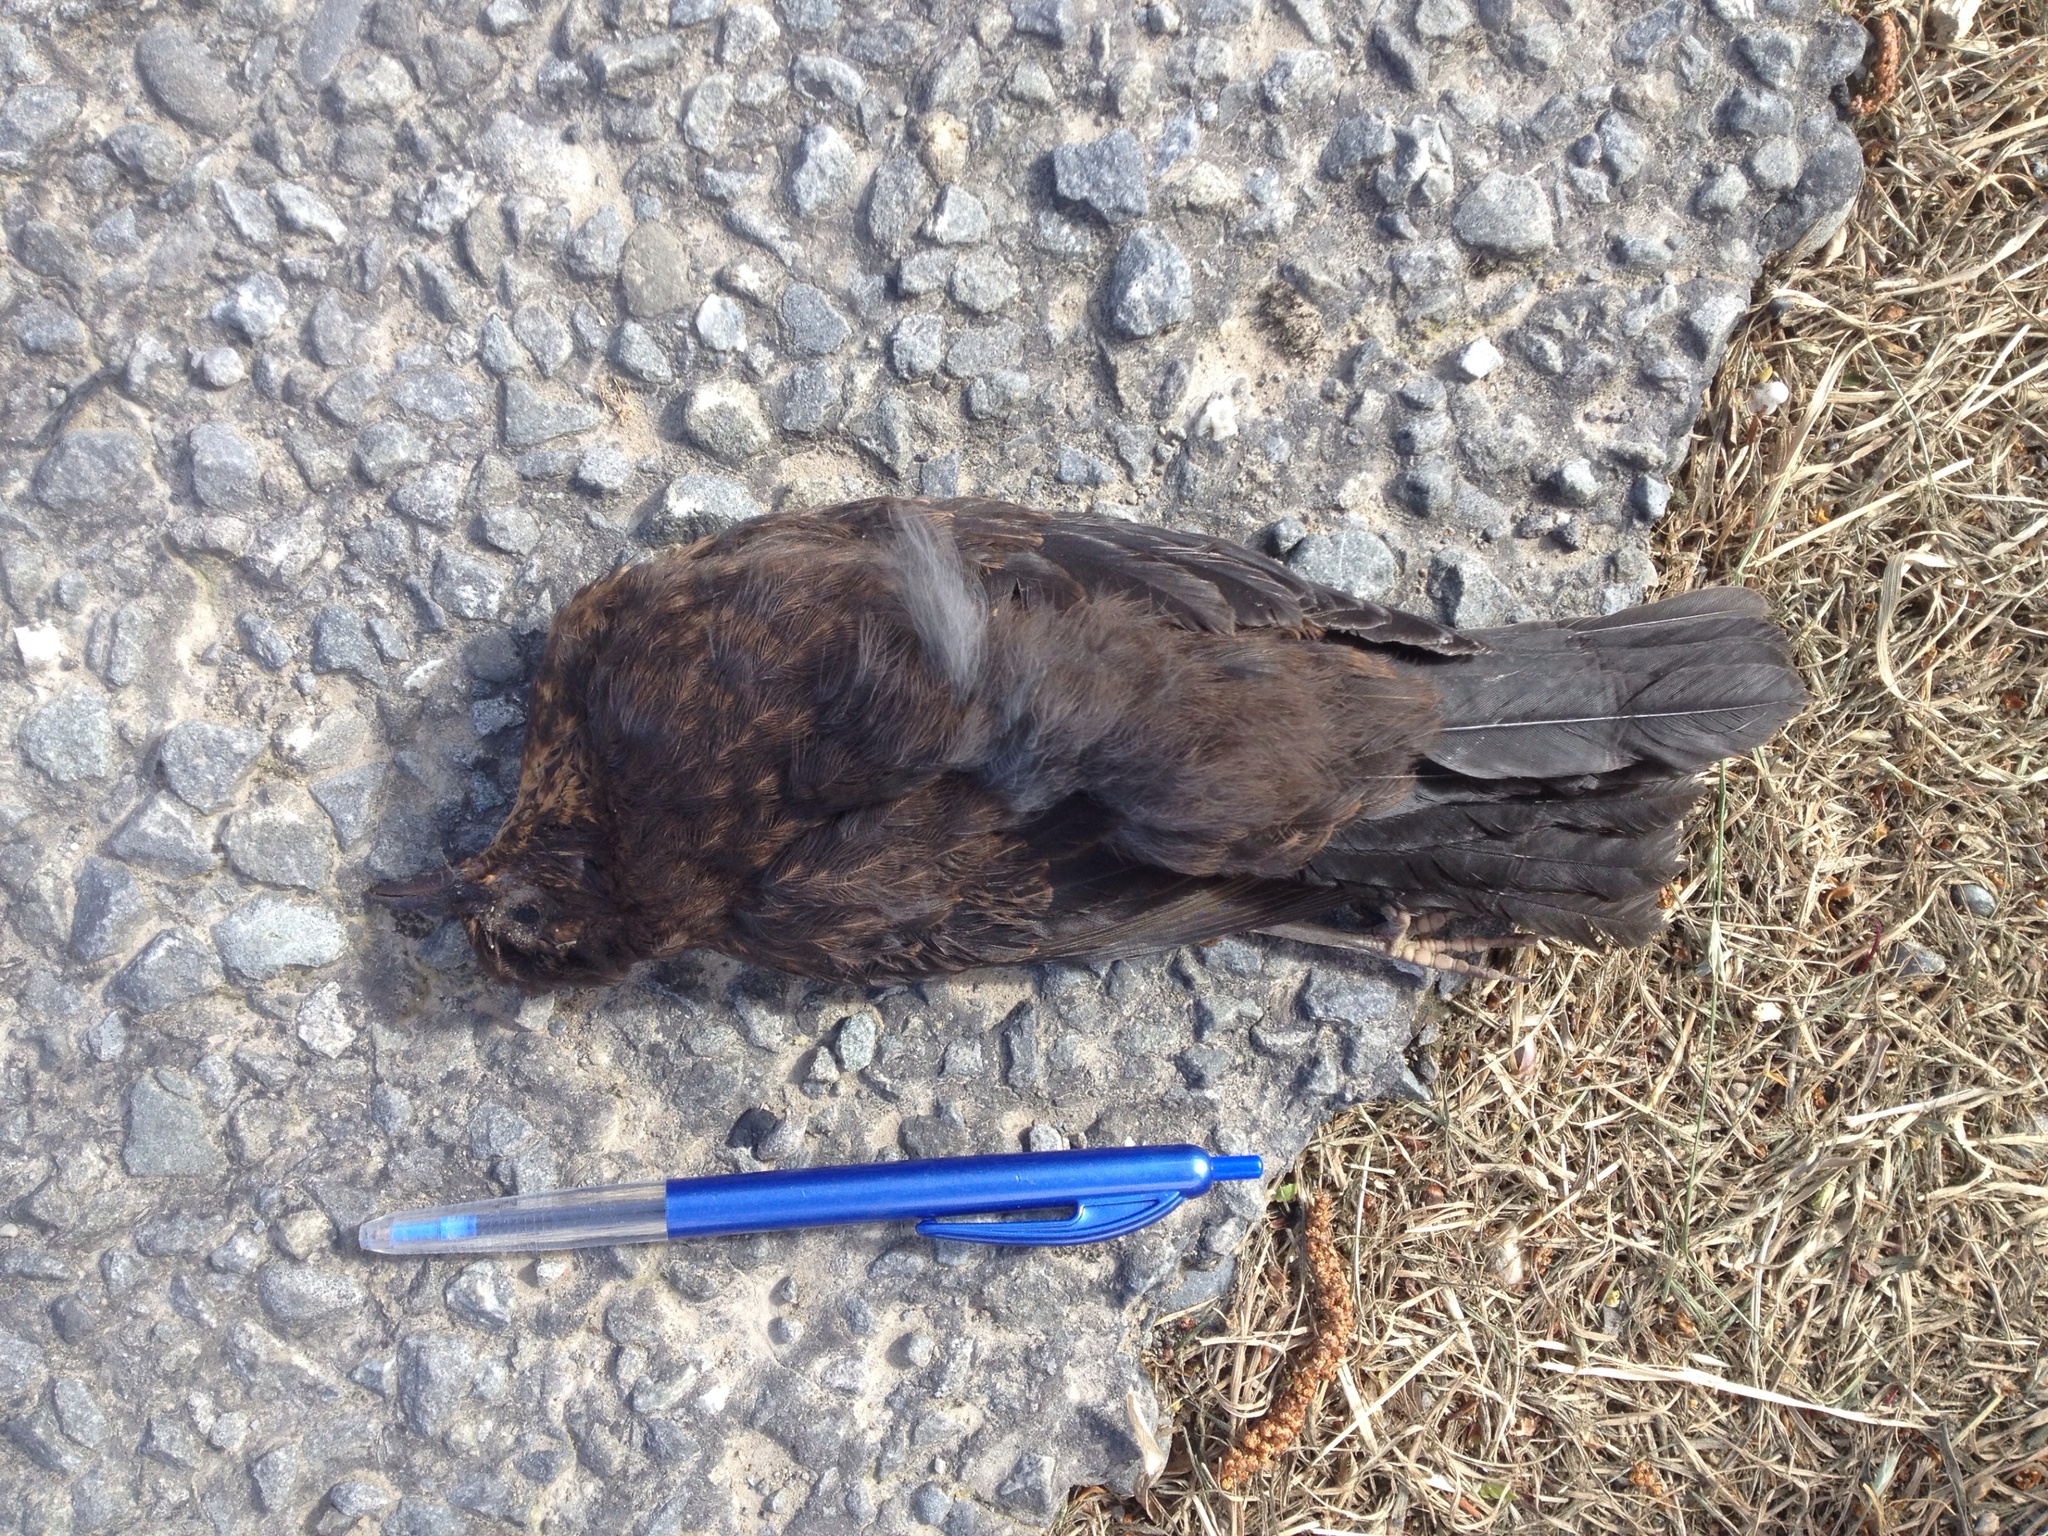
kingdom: Animalia
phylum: Chordata
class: Aves
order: Passeriformes
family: Turdidae
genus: Turdus
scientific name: Turdus merula
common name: Common blackbird
